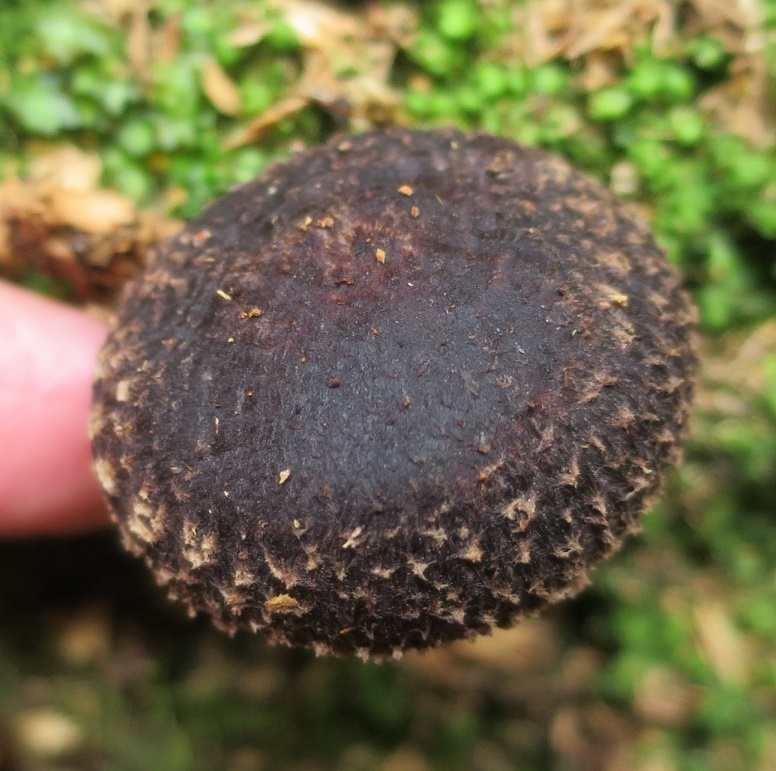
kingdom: Fungi
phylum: Basidiomycota
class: Agaricomycetes
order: Agaricales
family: Omphalotaceae
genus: Lentinula
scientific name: Lentinula novae-zelandiae
